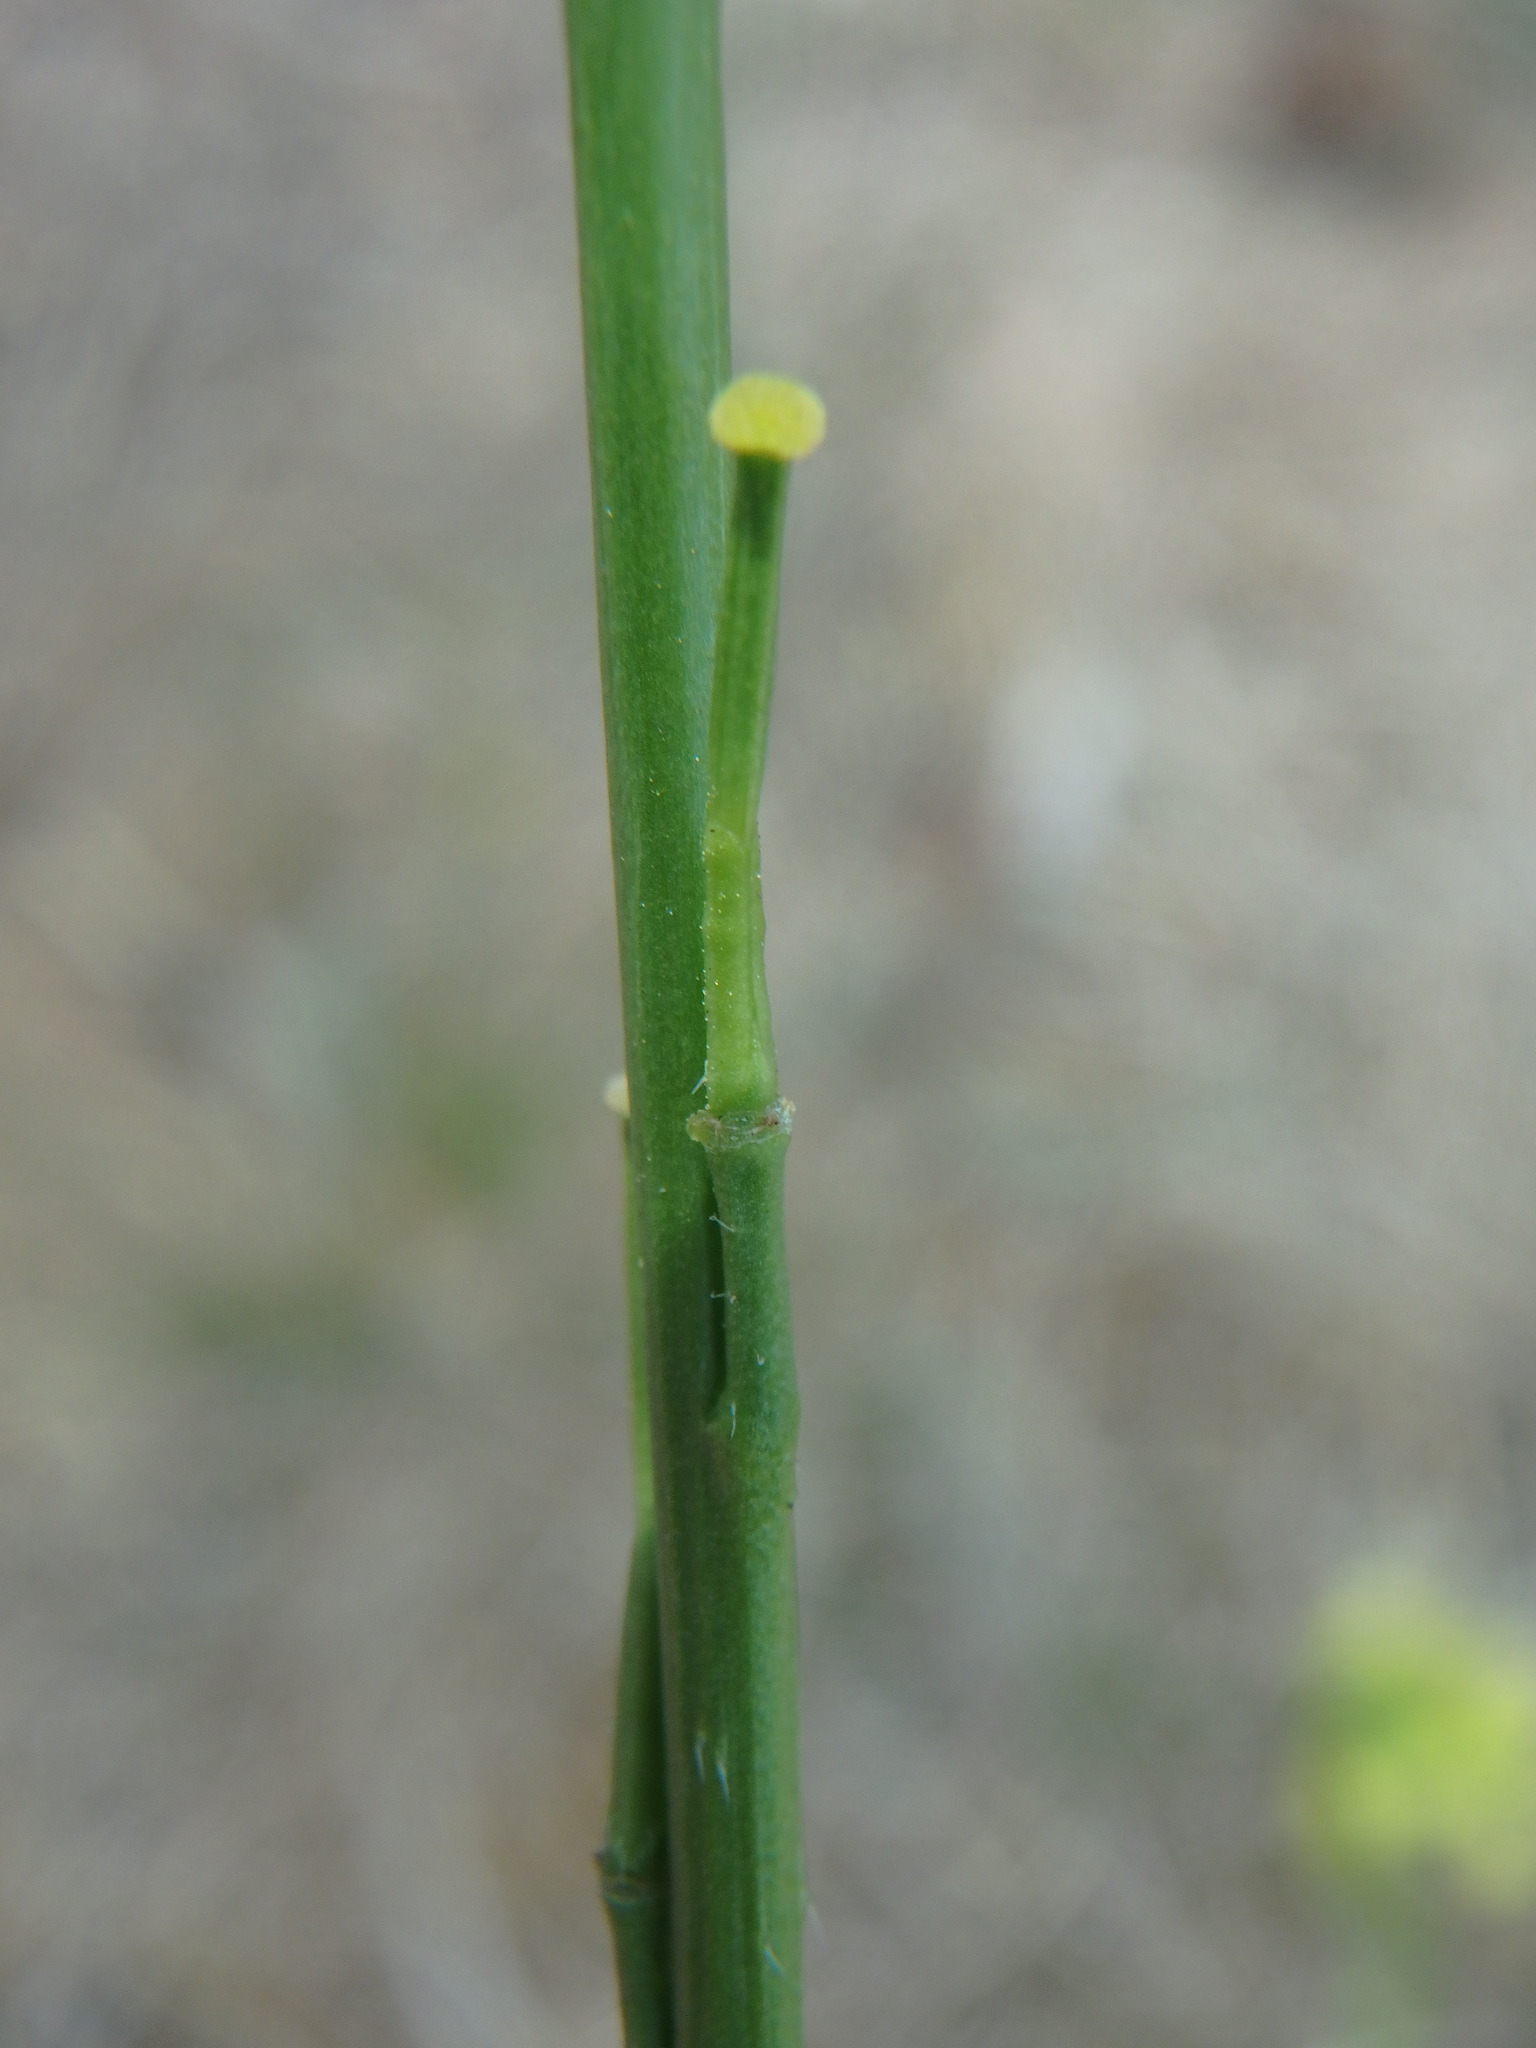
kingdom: Plantae
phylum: Tracheophyta
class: Magnoliopsida
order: Brassicales
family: Brassicaceae
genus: Hirschfeldia
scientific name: Hirschfeldia incana
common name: Hoary mustard
